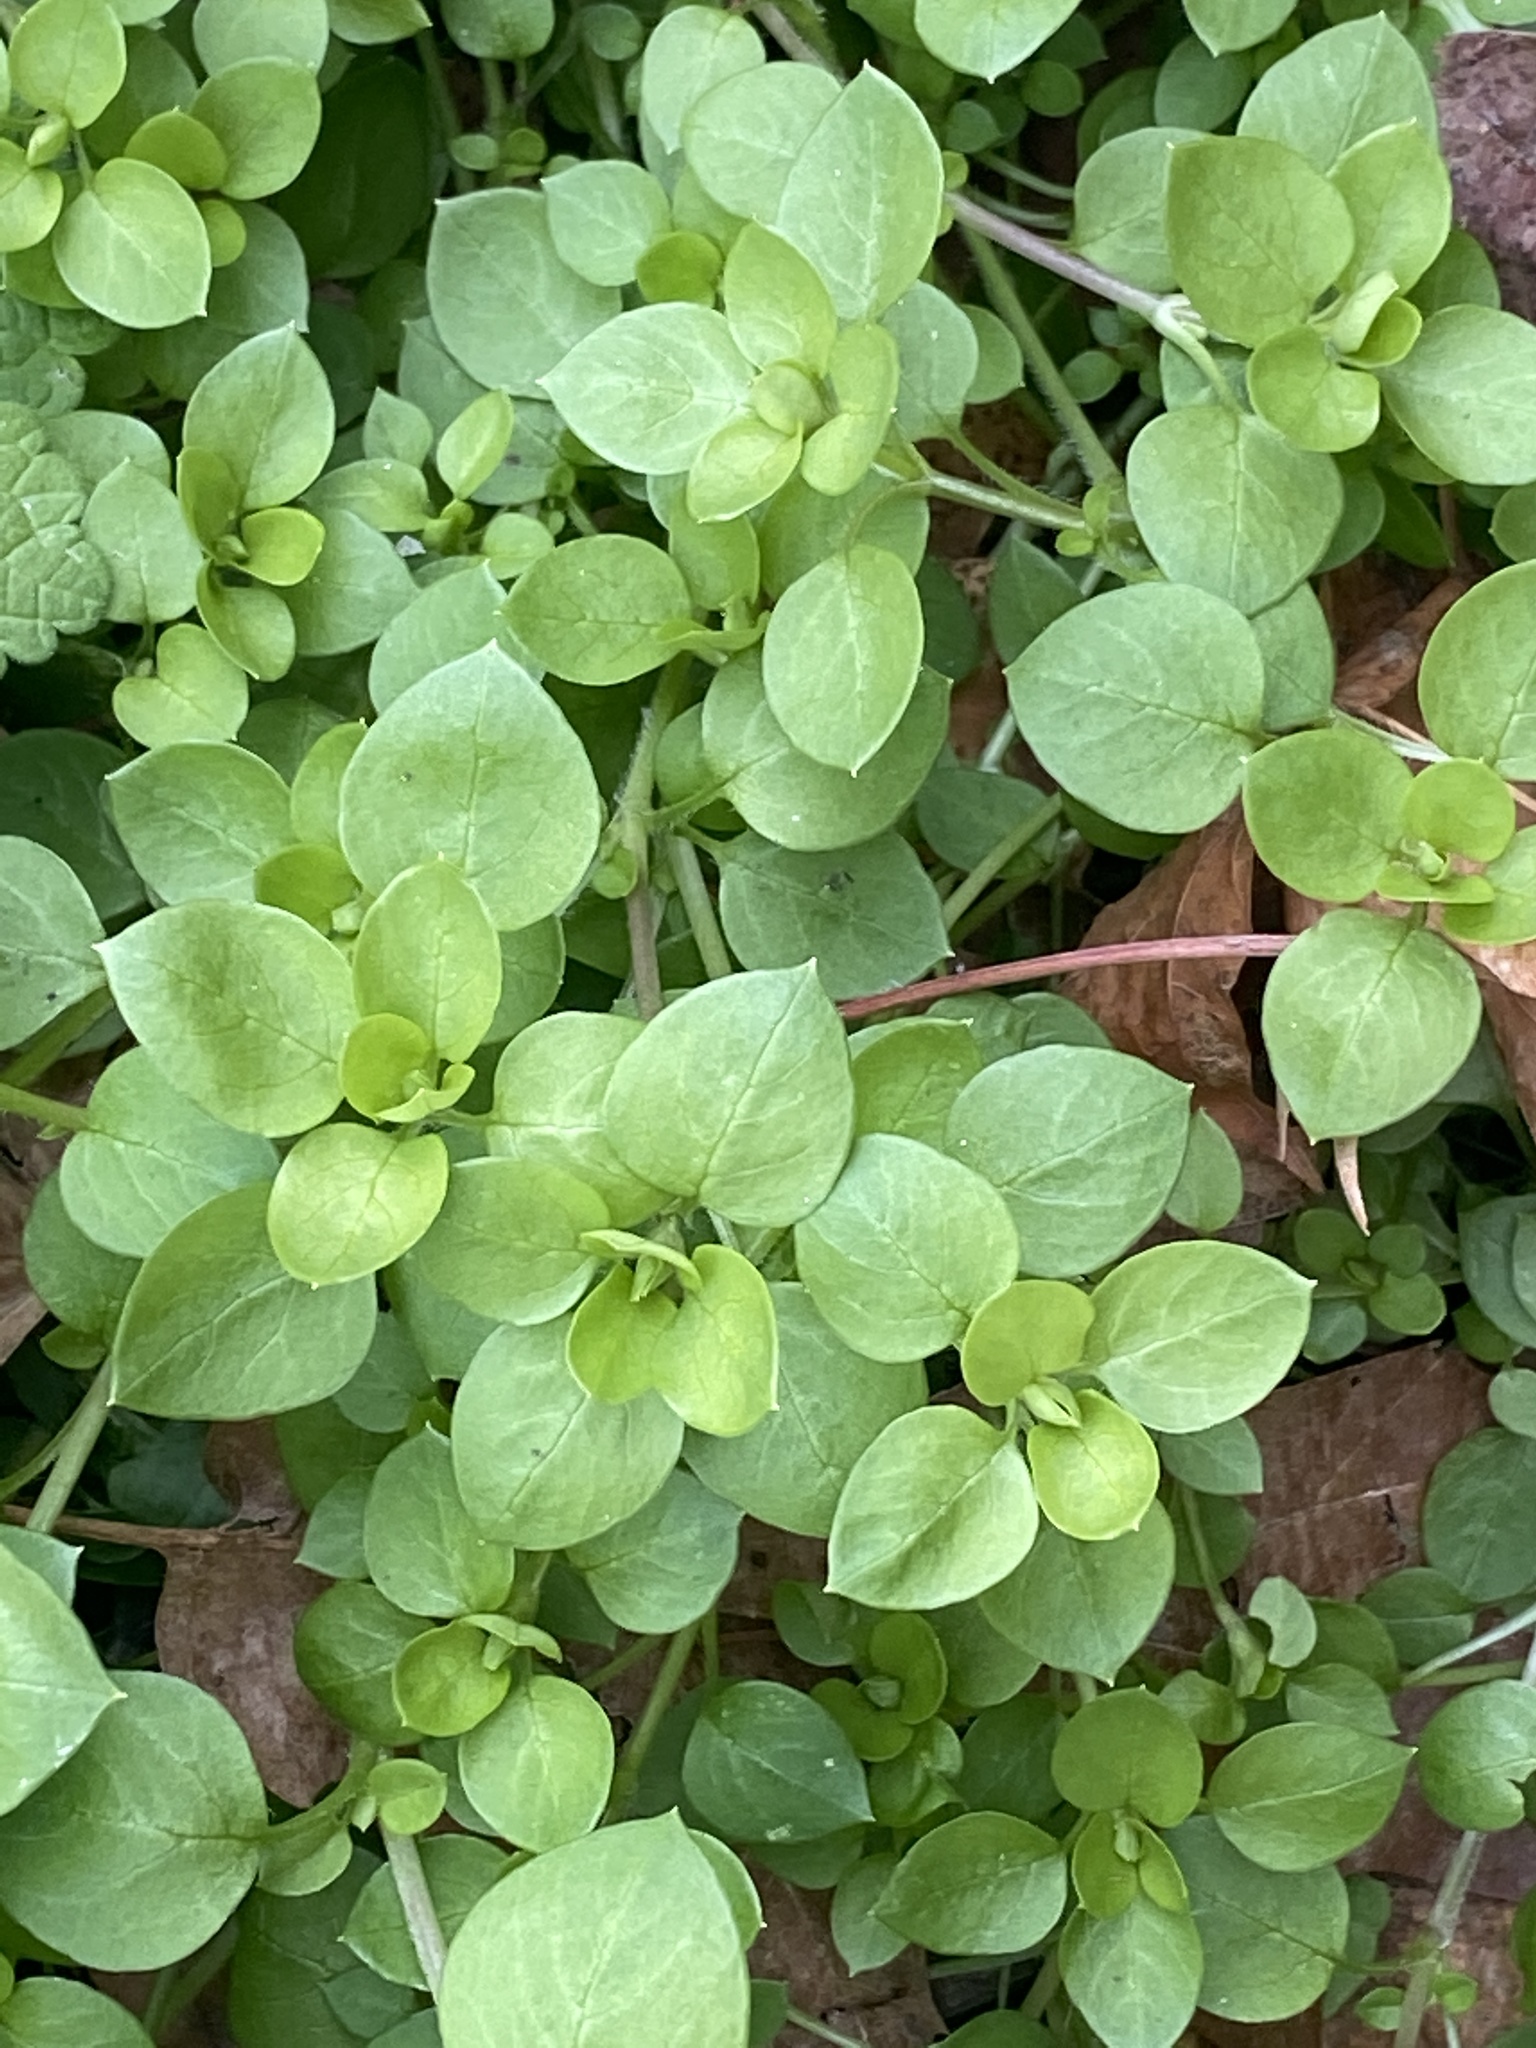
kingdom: Plantae
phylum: Tracheophyta
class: Magnoliopsida
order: Caryophyllales
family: Caryophyllaceae
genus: Stellaria
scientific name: Stellaria media
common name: Common chickweed
